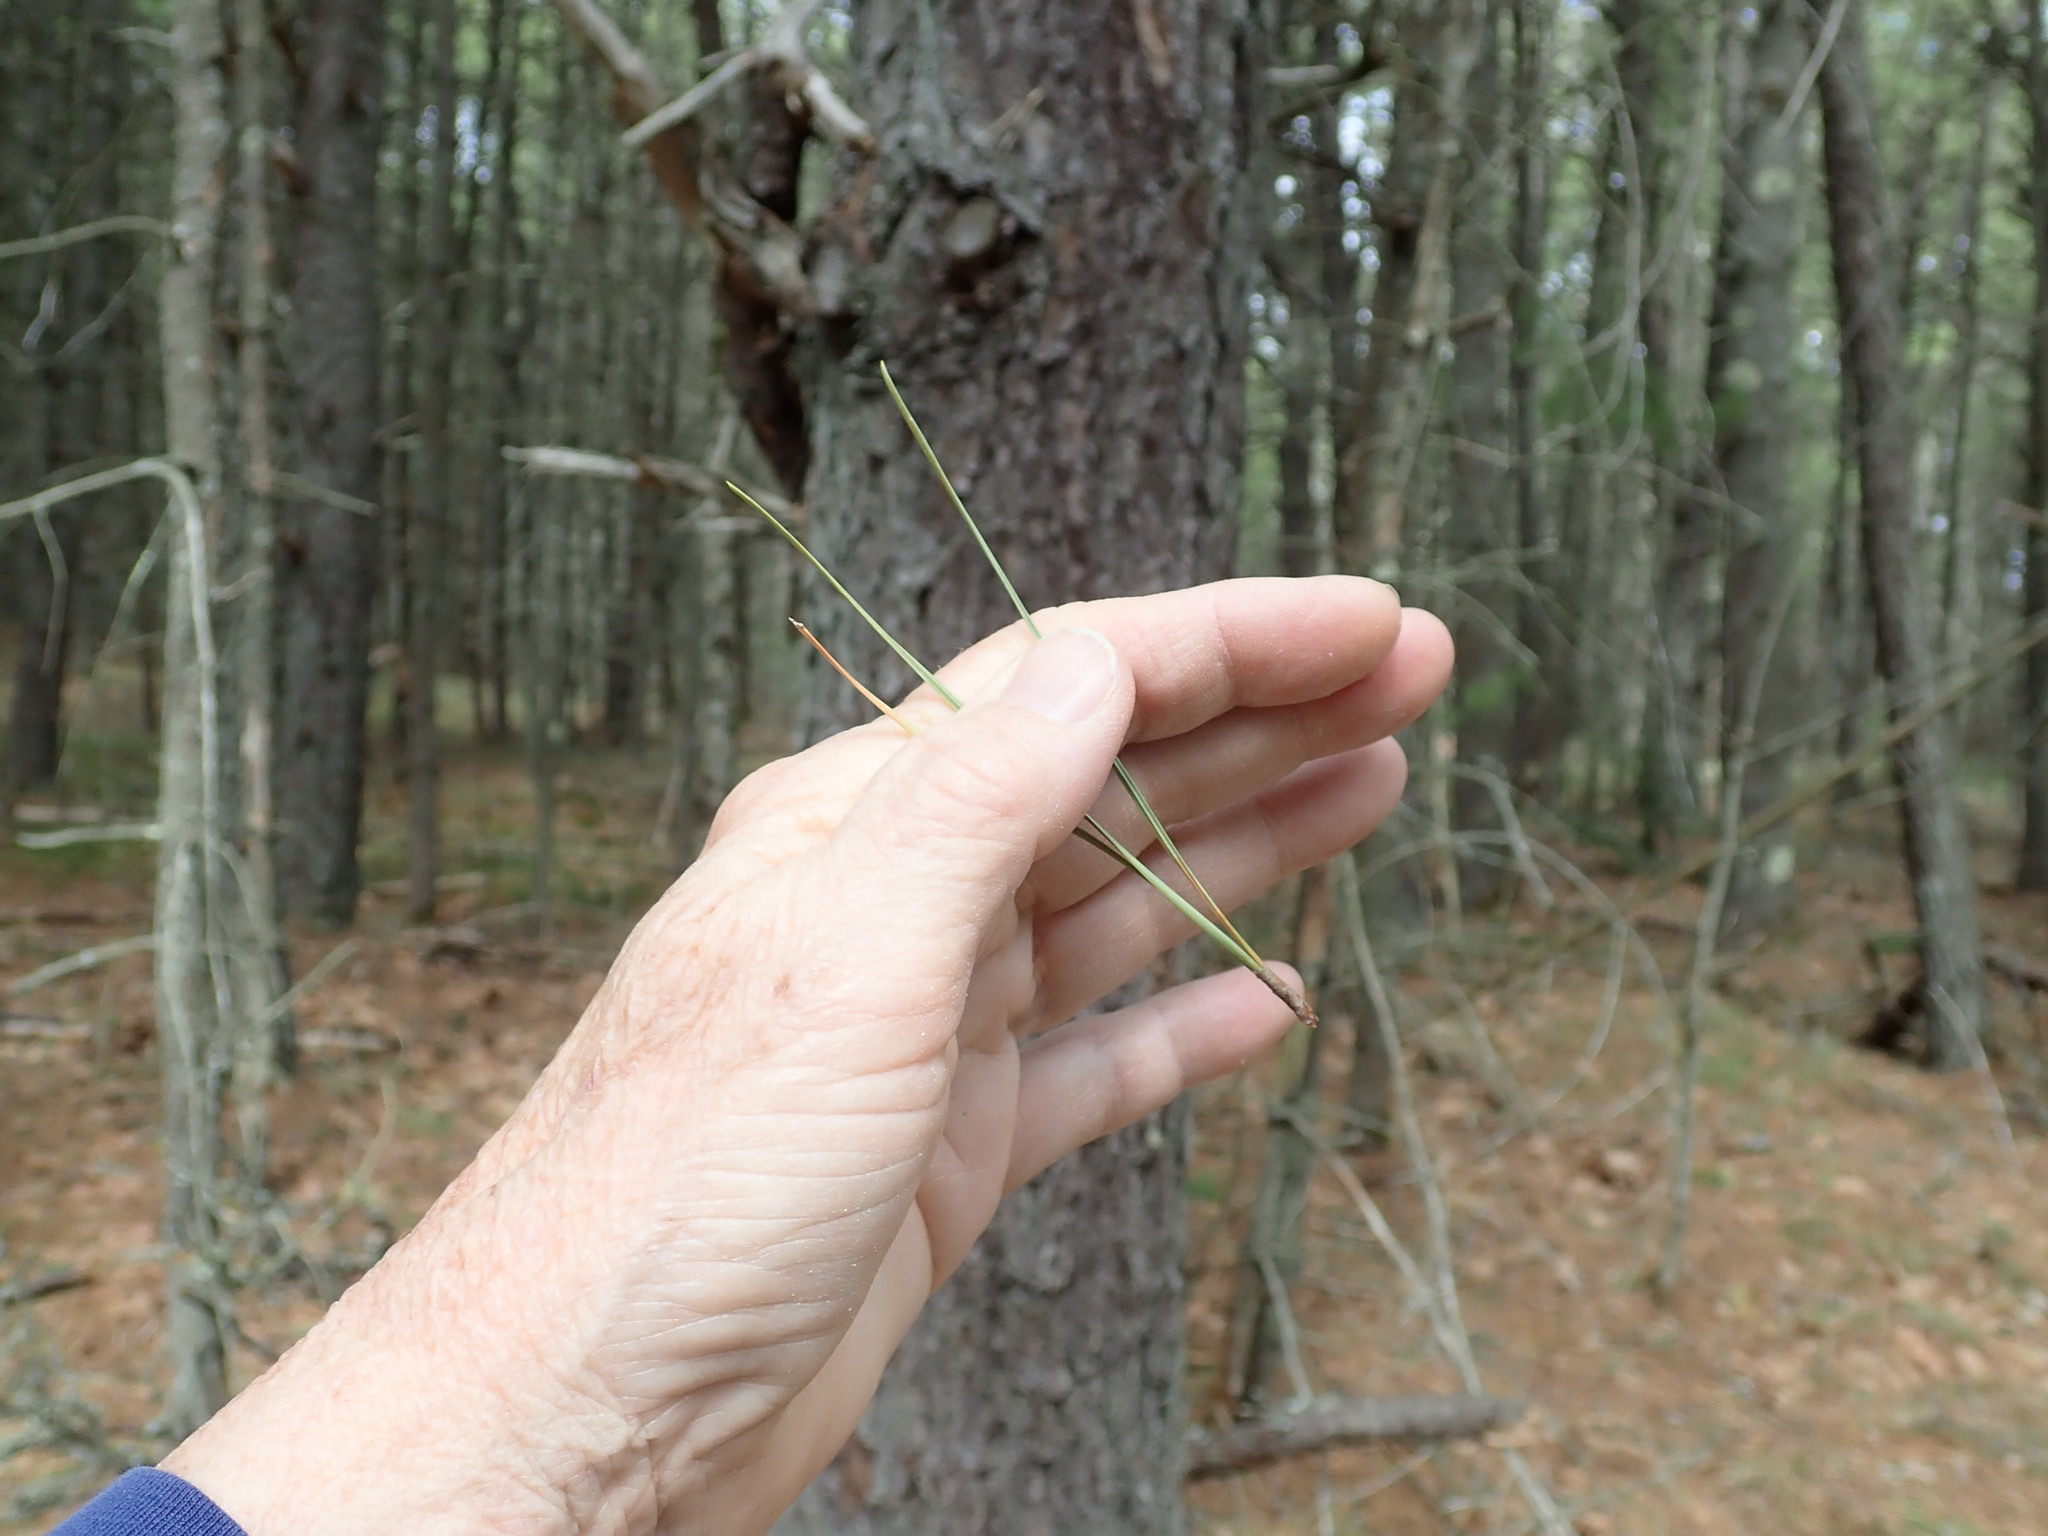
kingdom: Plantae
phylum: Tracheophyta
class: Pinopsida
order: Pinales
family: Pinaceae
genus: Pinus
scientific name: Pinus rigida
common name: Pitch pine
